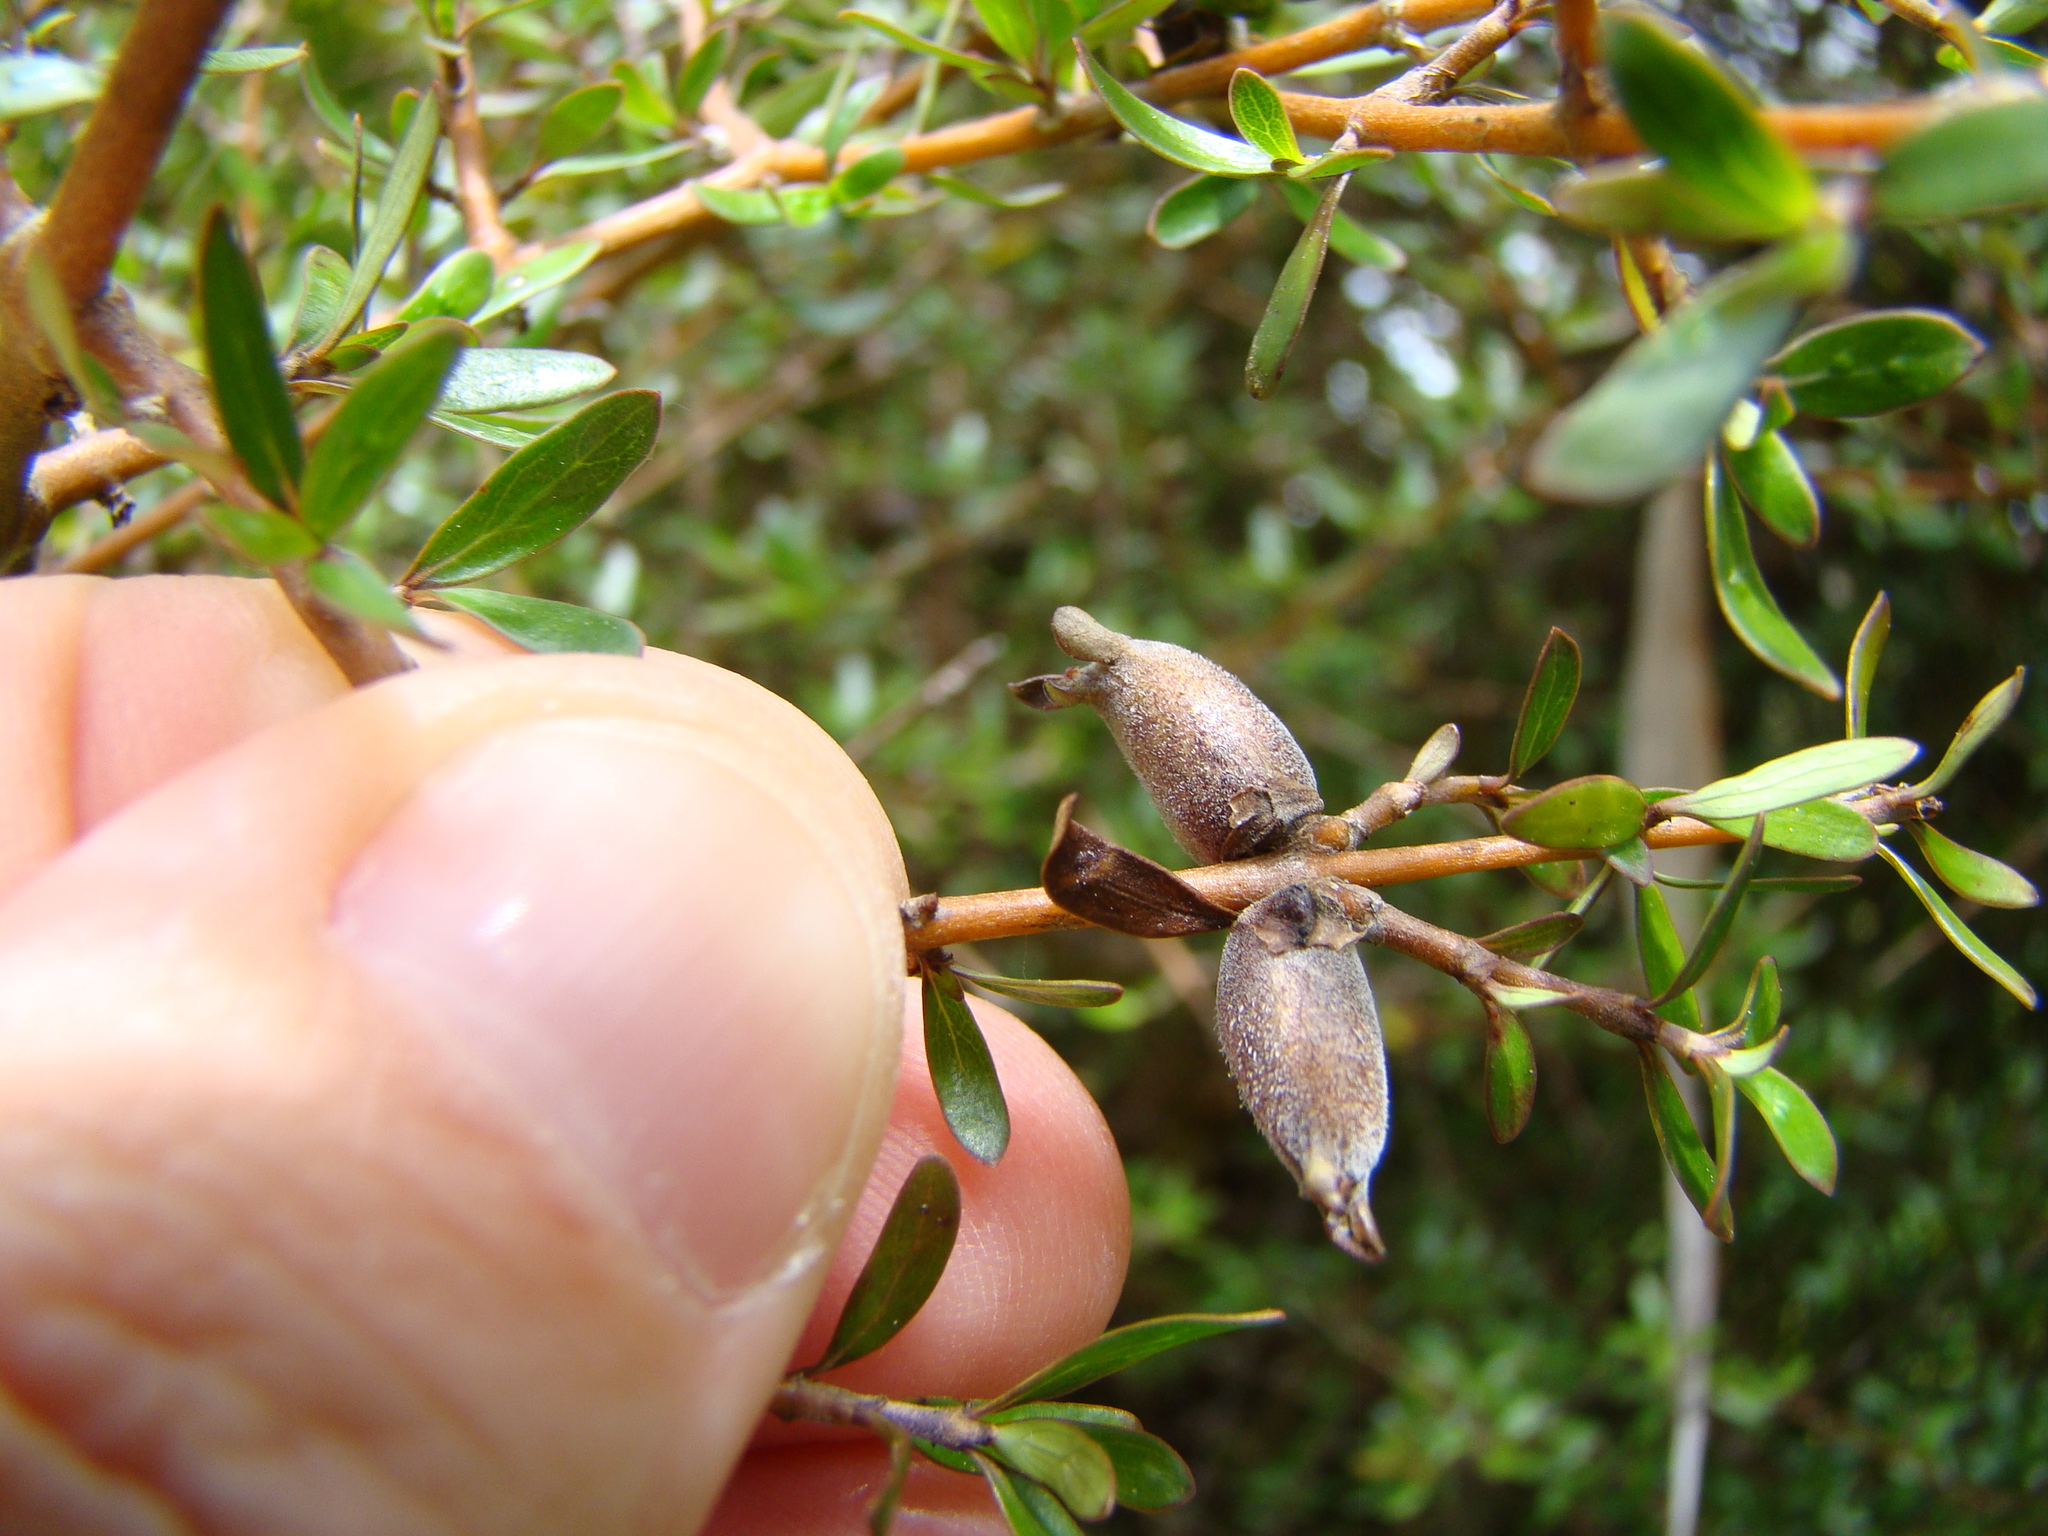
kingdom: Plantae
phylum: Tracheophyta
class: Magnoliopsida
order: Gentianales
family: Rubiaceae
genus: Coprosma
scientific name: Coprosma propinqua
